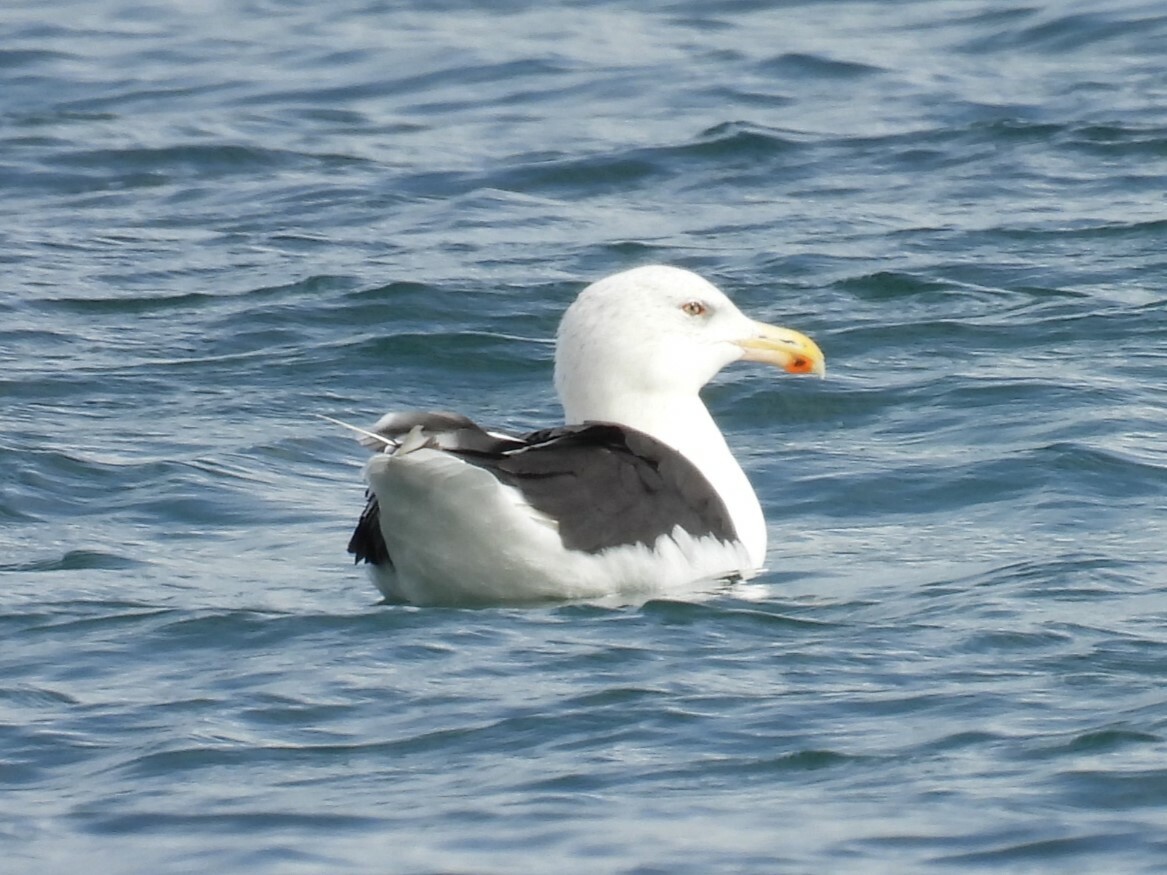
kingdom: Animalia
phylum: Chordata
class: Aves
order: Charadriiformes
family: Laridae
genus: Larus
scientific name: Larus marinus
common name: Great black-backed gull
